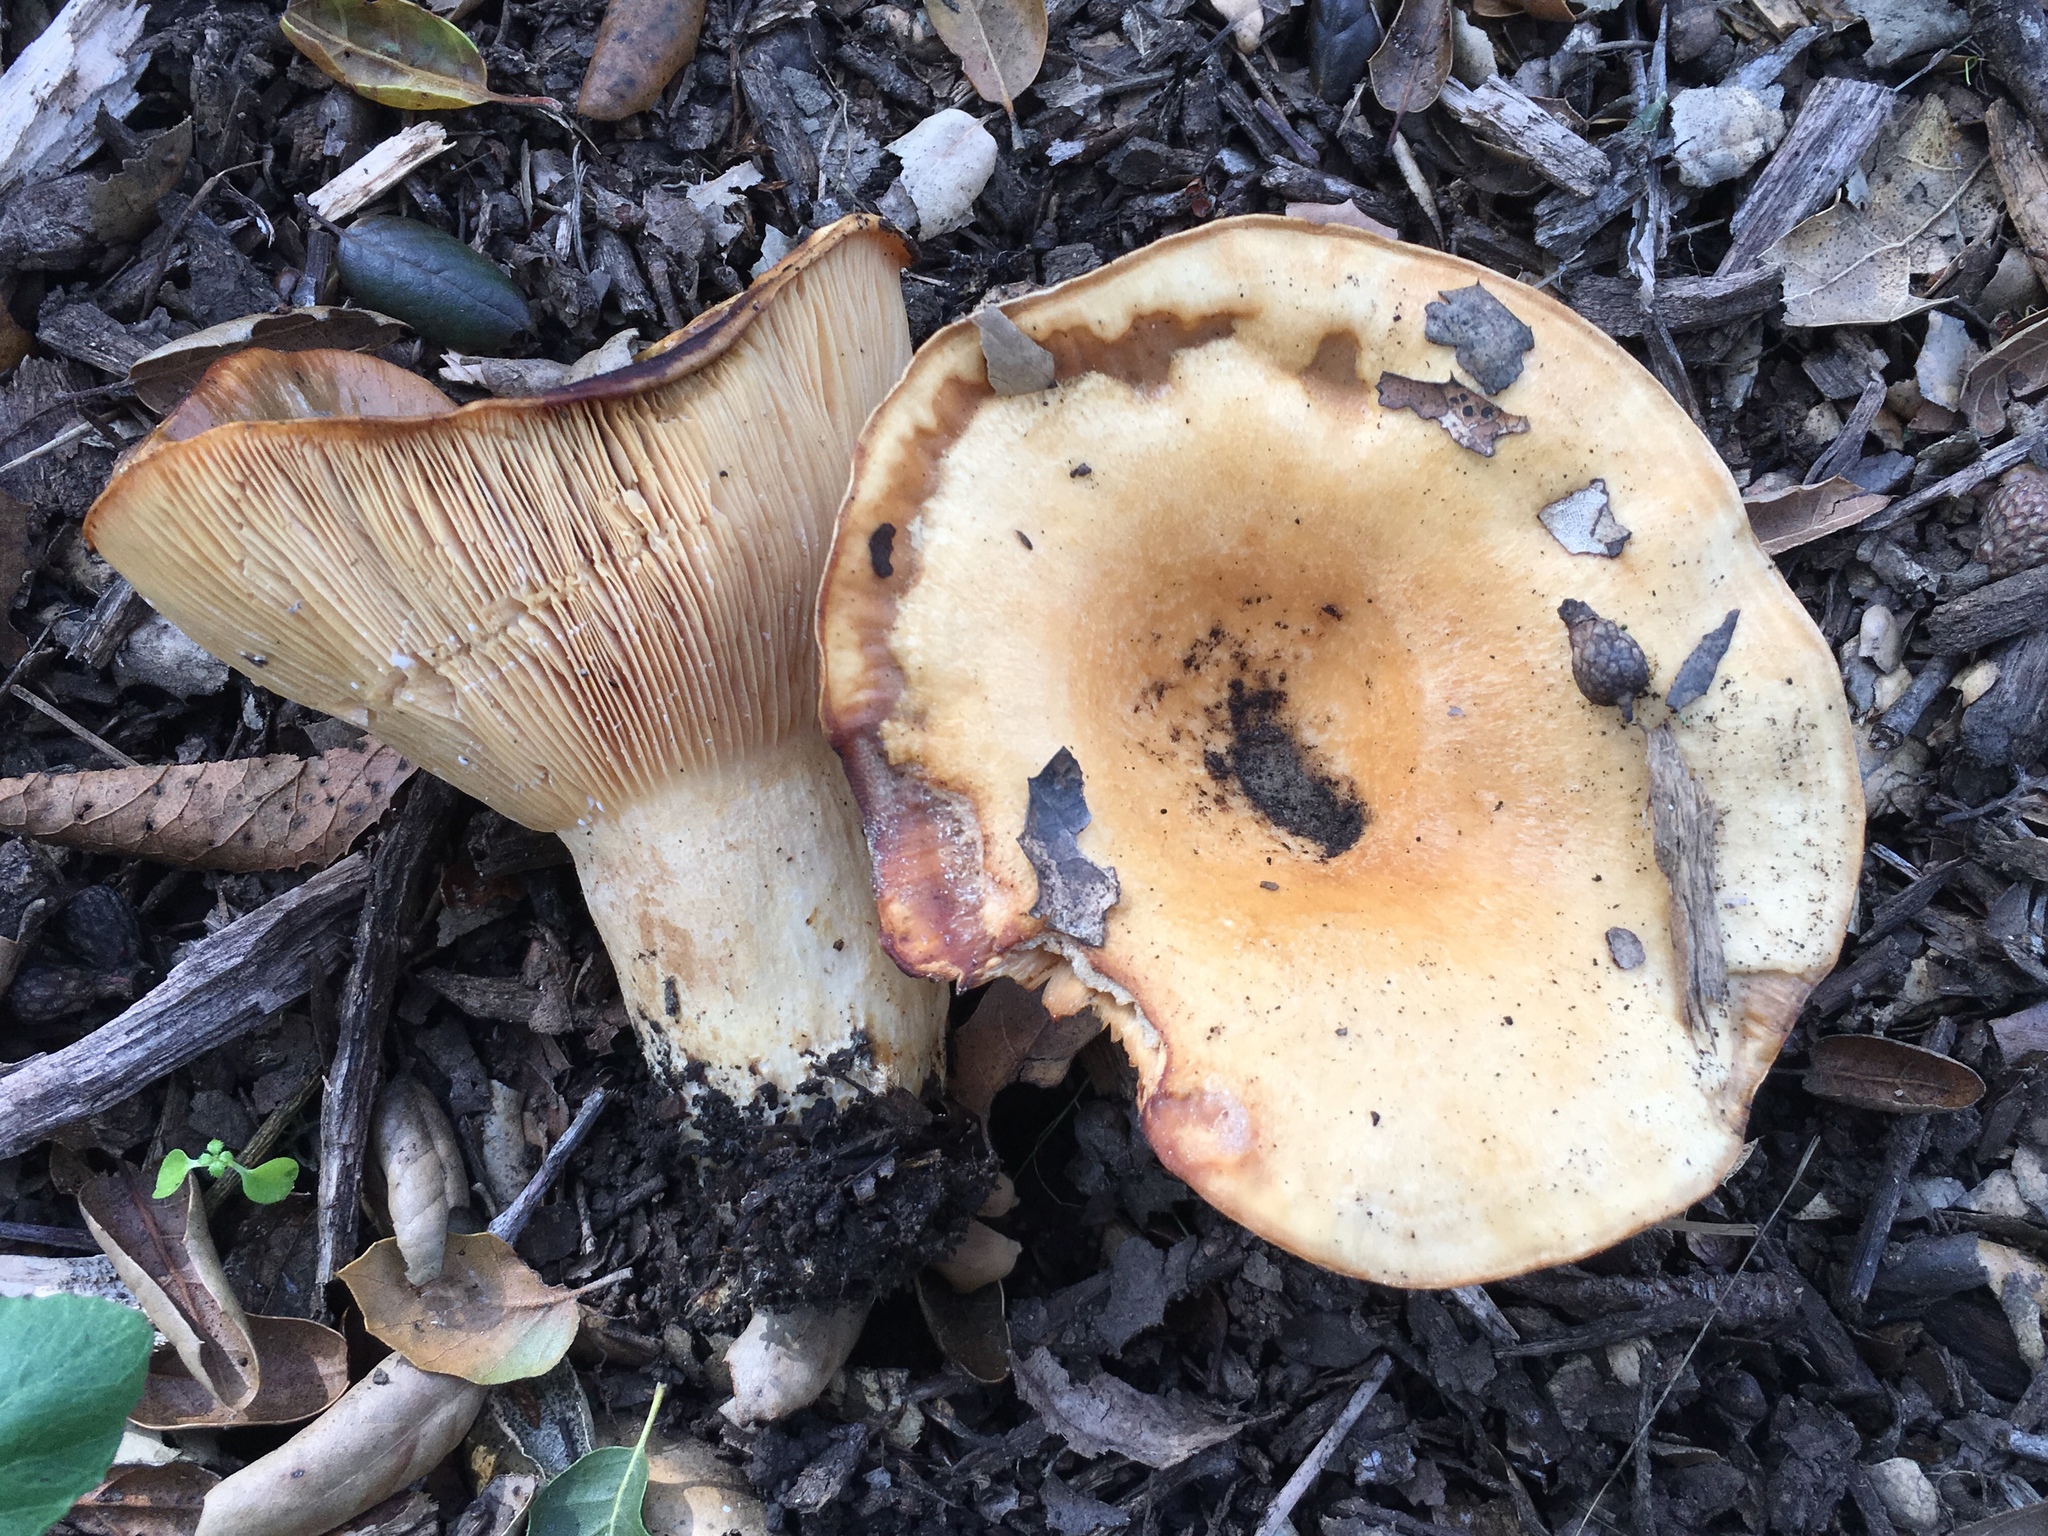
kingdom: Fungi
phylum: Basidiomycota
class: Agaricomycetes
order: Russulales
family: Russulaceae
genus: Lactarius
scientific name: Lactarius alnicola
